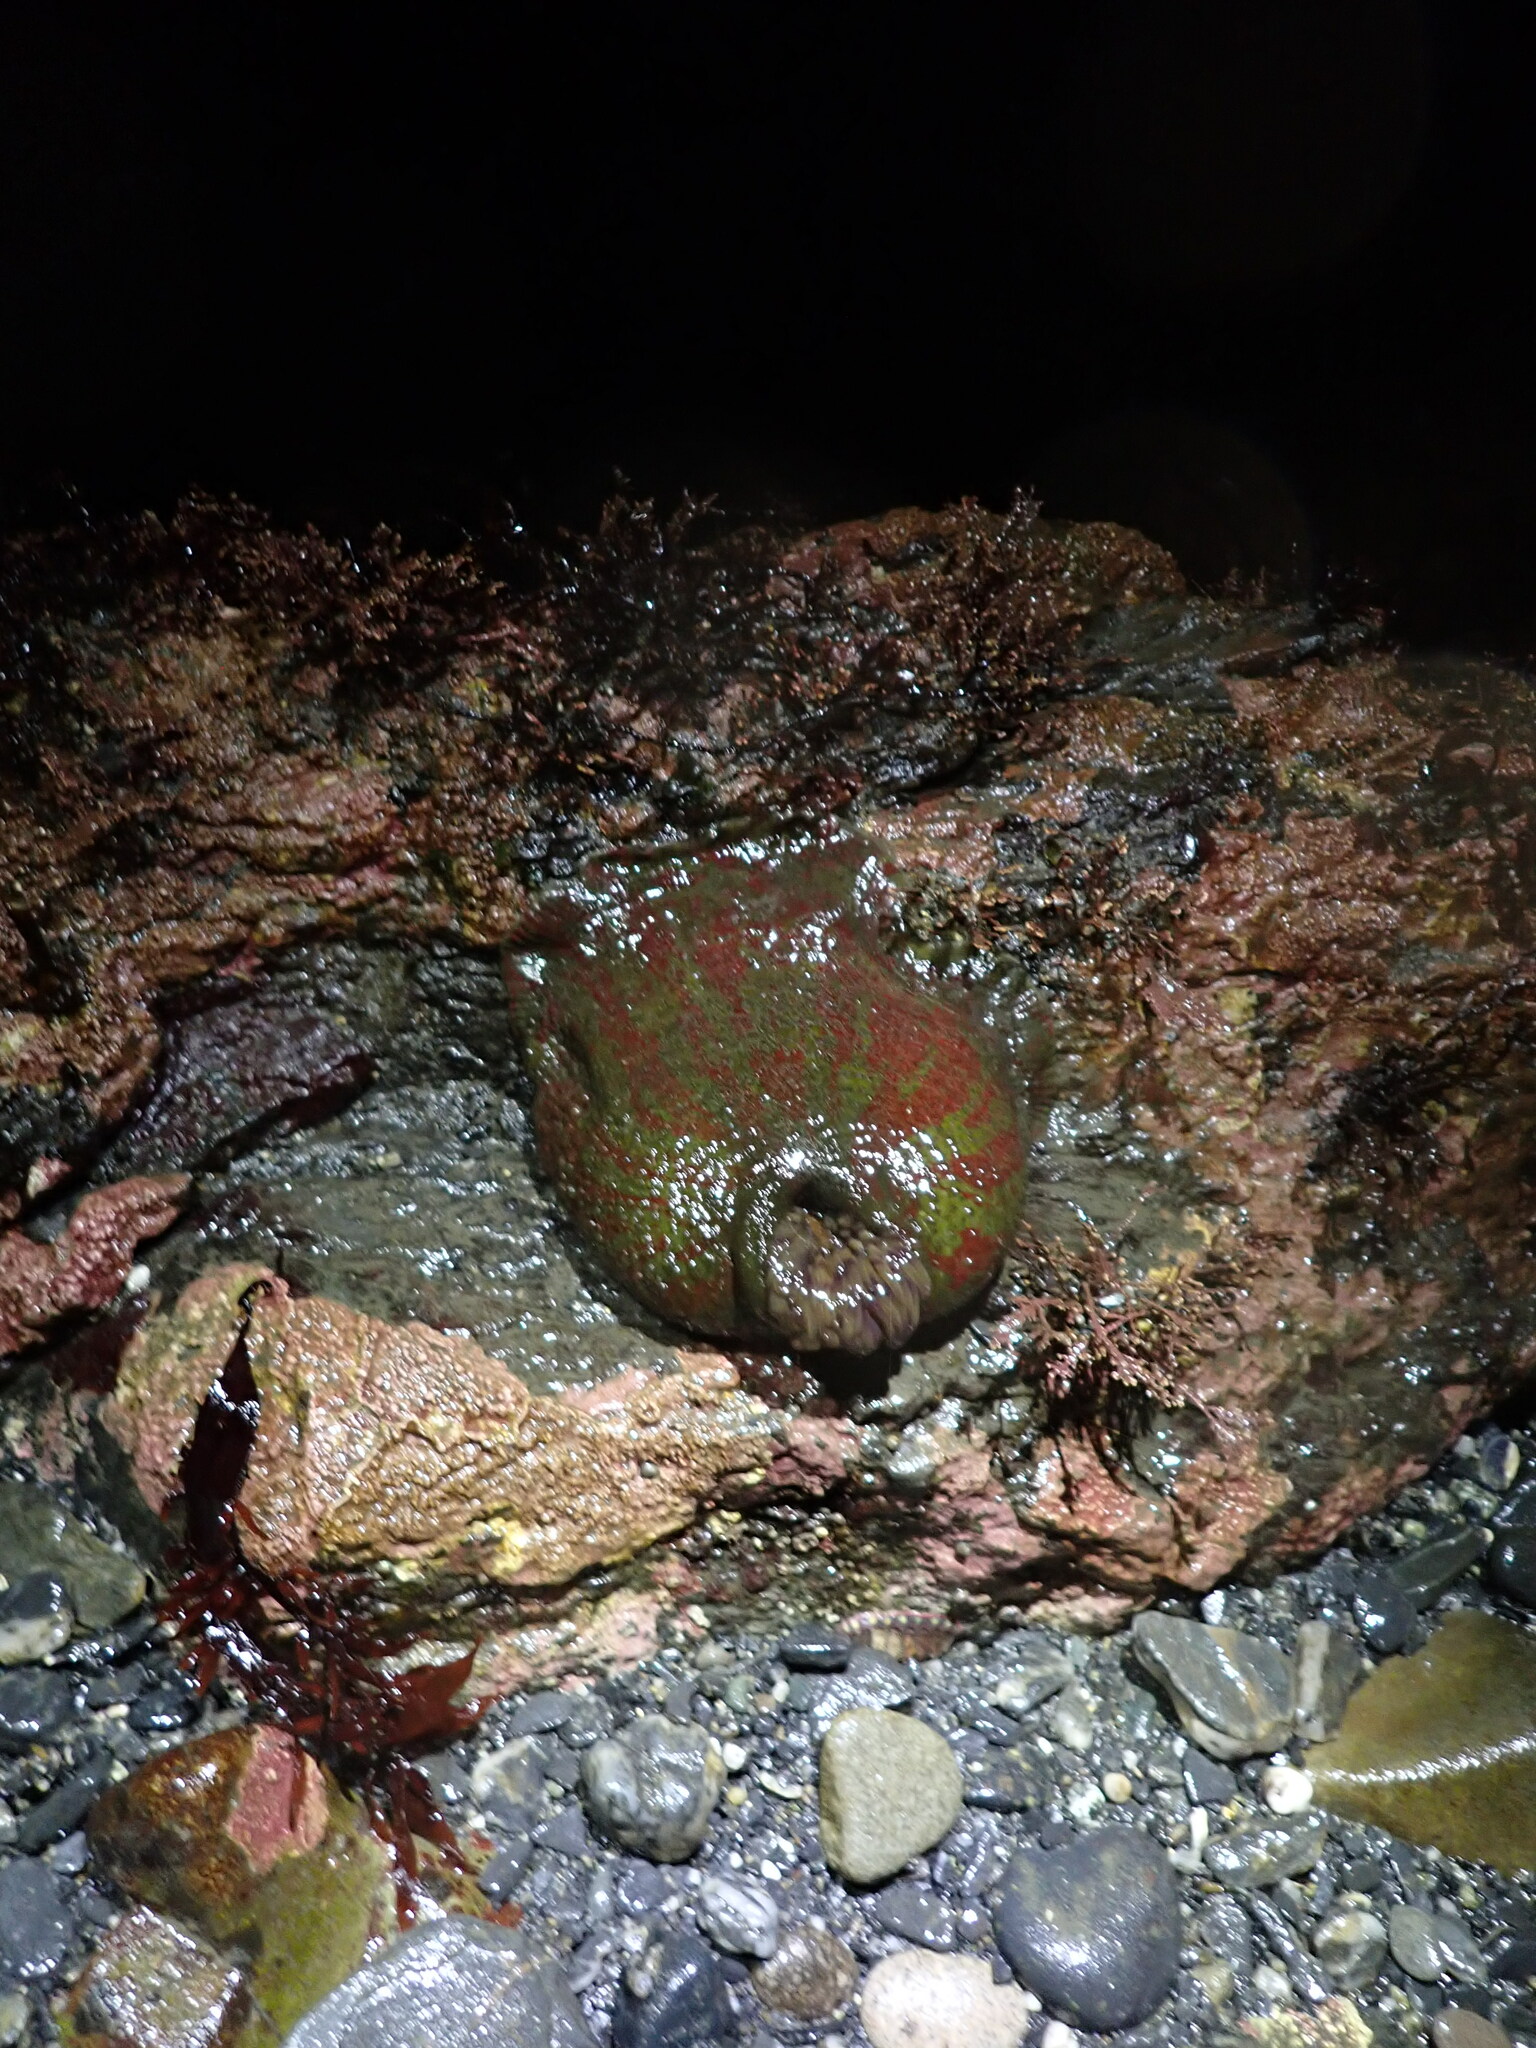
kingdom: Animalia
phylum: Cnidaria
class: Anthozoa
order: Actiniaria
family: Actiniidae
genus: Urticina
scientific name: Urticina grebelnyi
